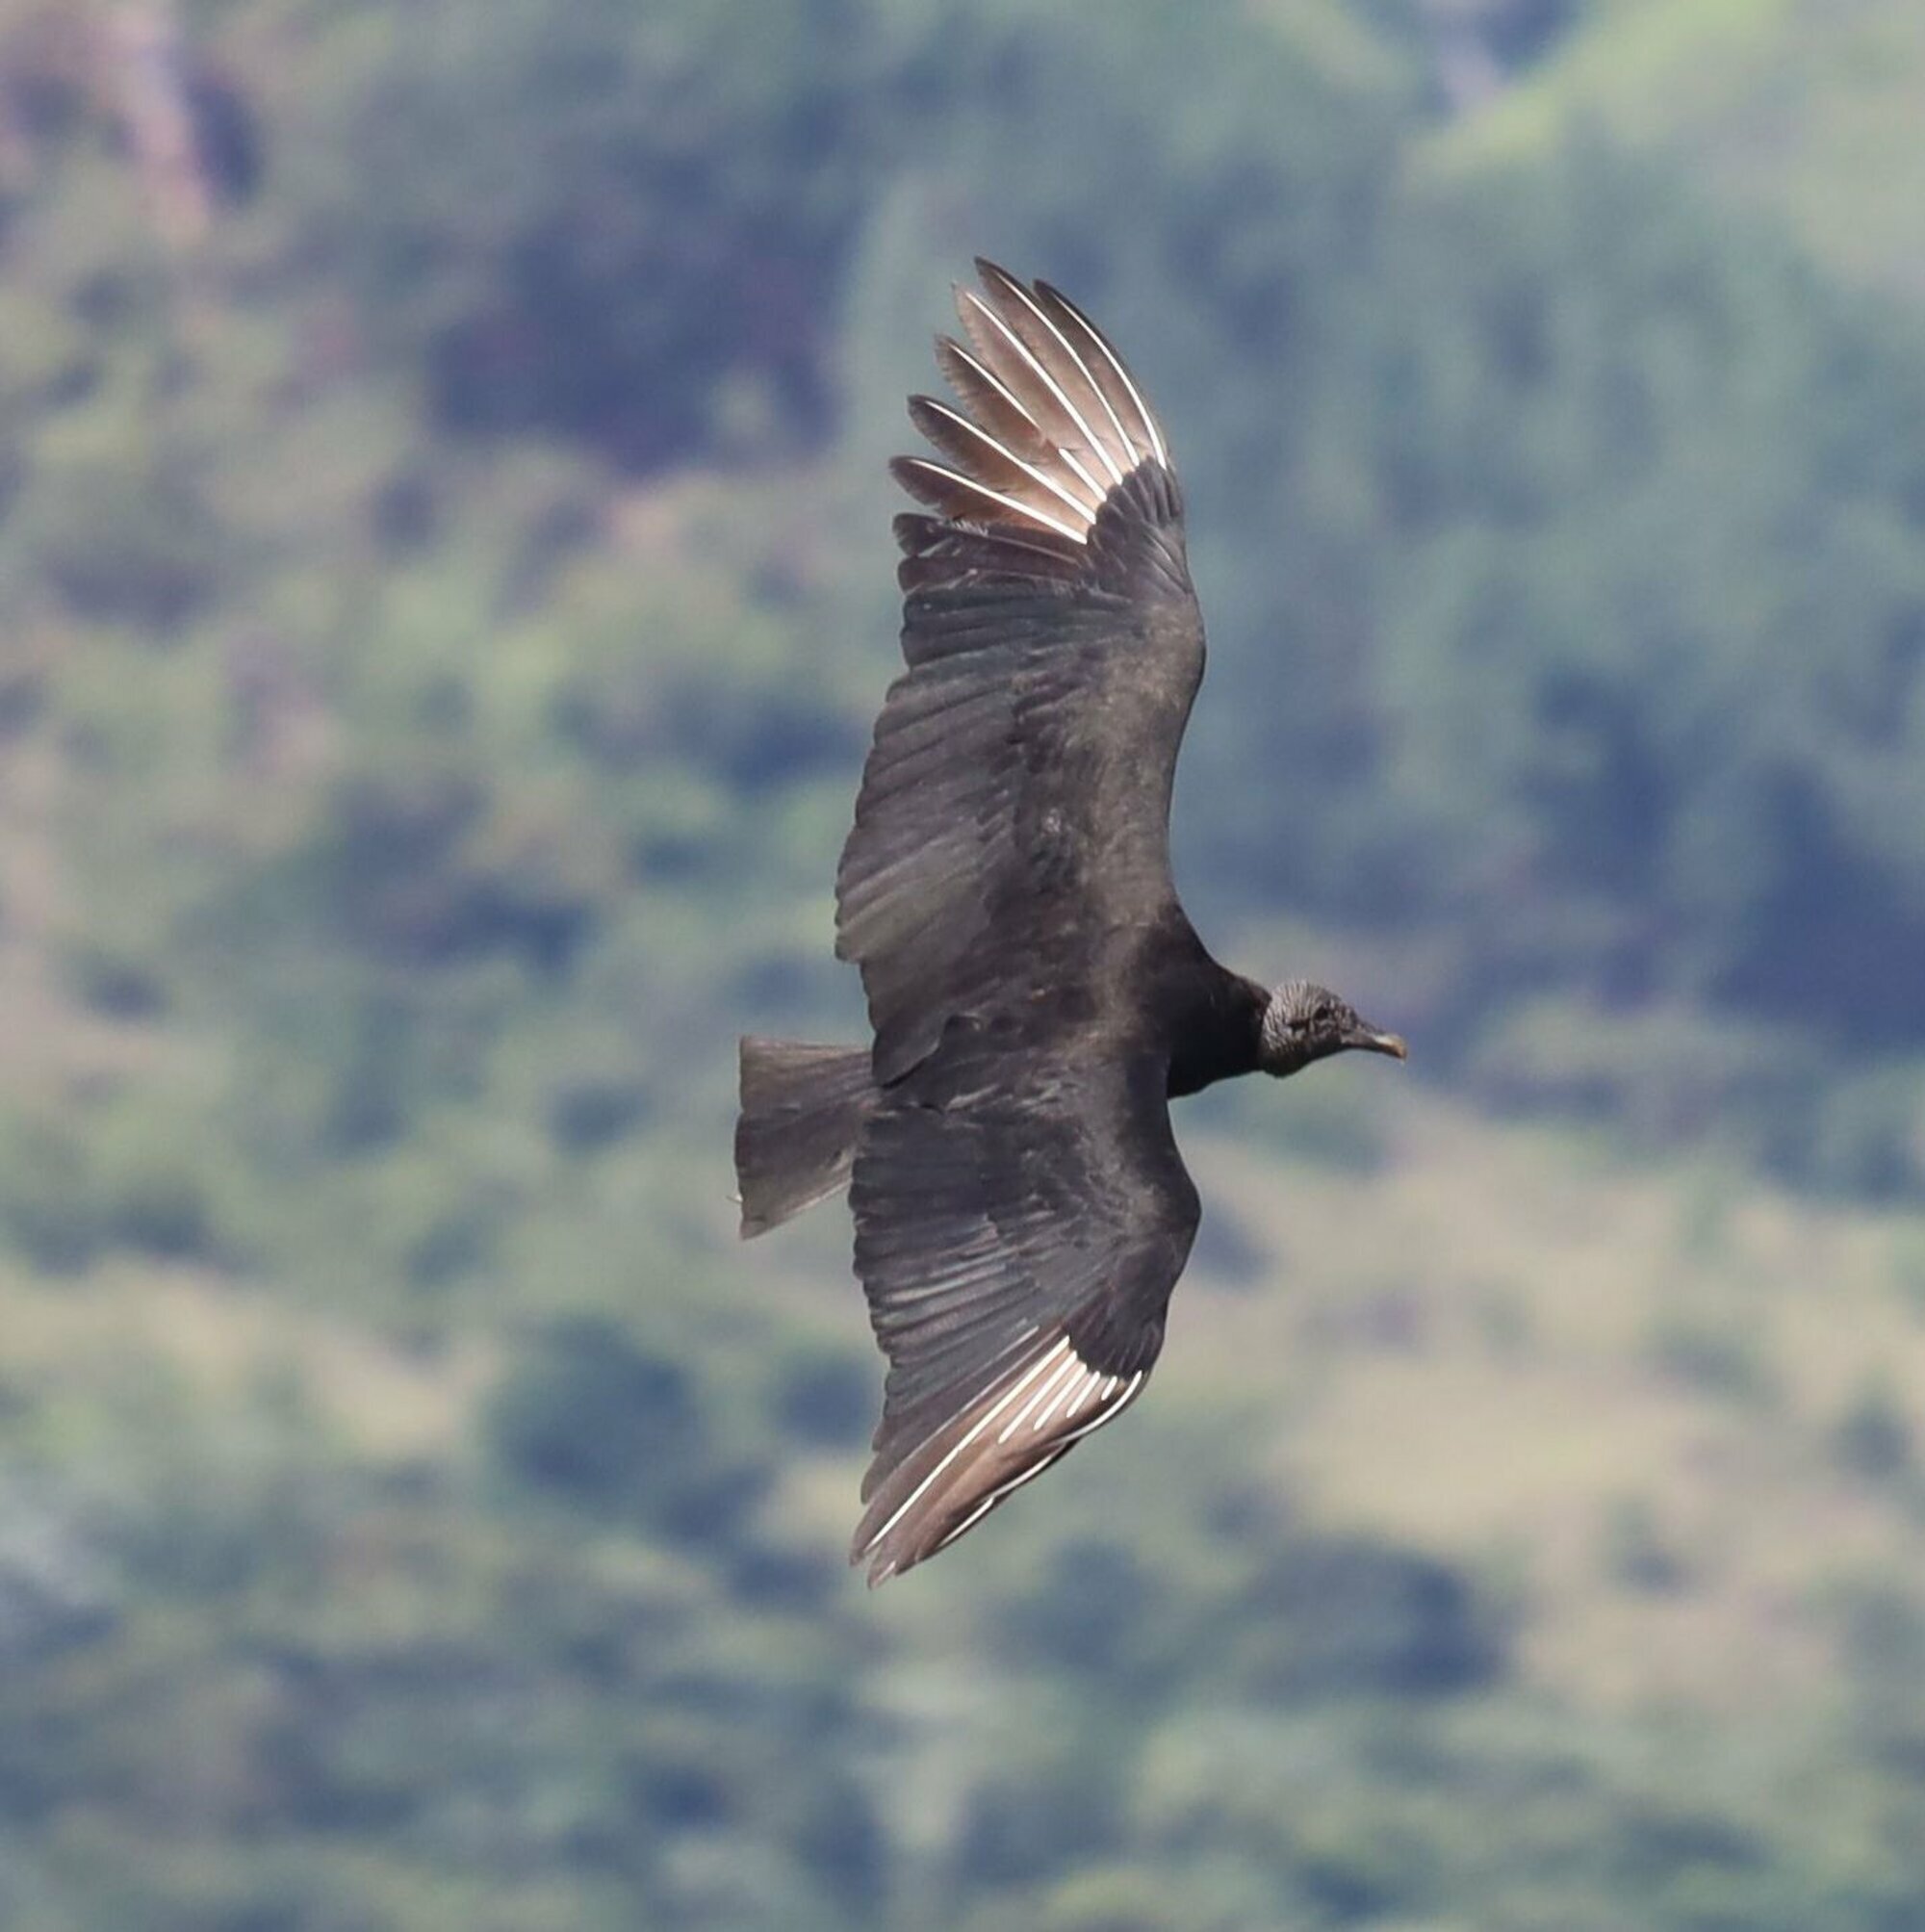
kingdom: Animalia
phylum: Chordata
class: Aves
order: Accipitriformes
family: Cathartidae
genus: Coragyps
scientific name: Coragyps atratus
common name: Black vulture
